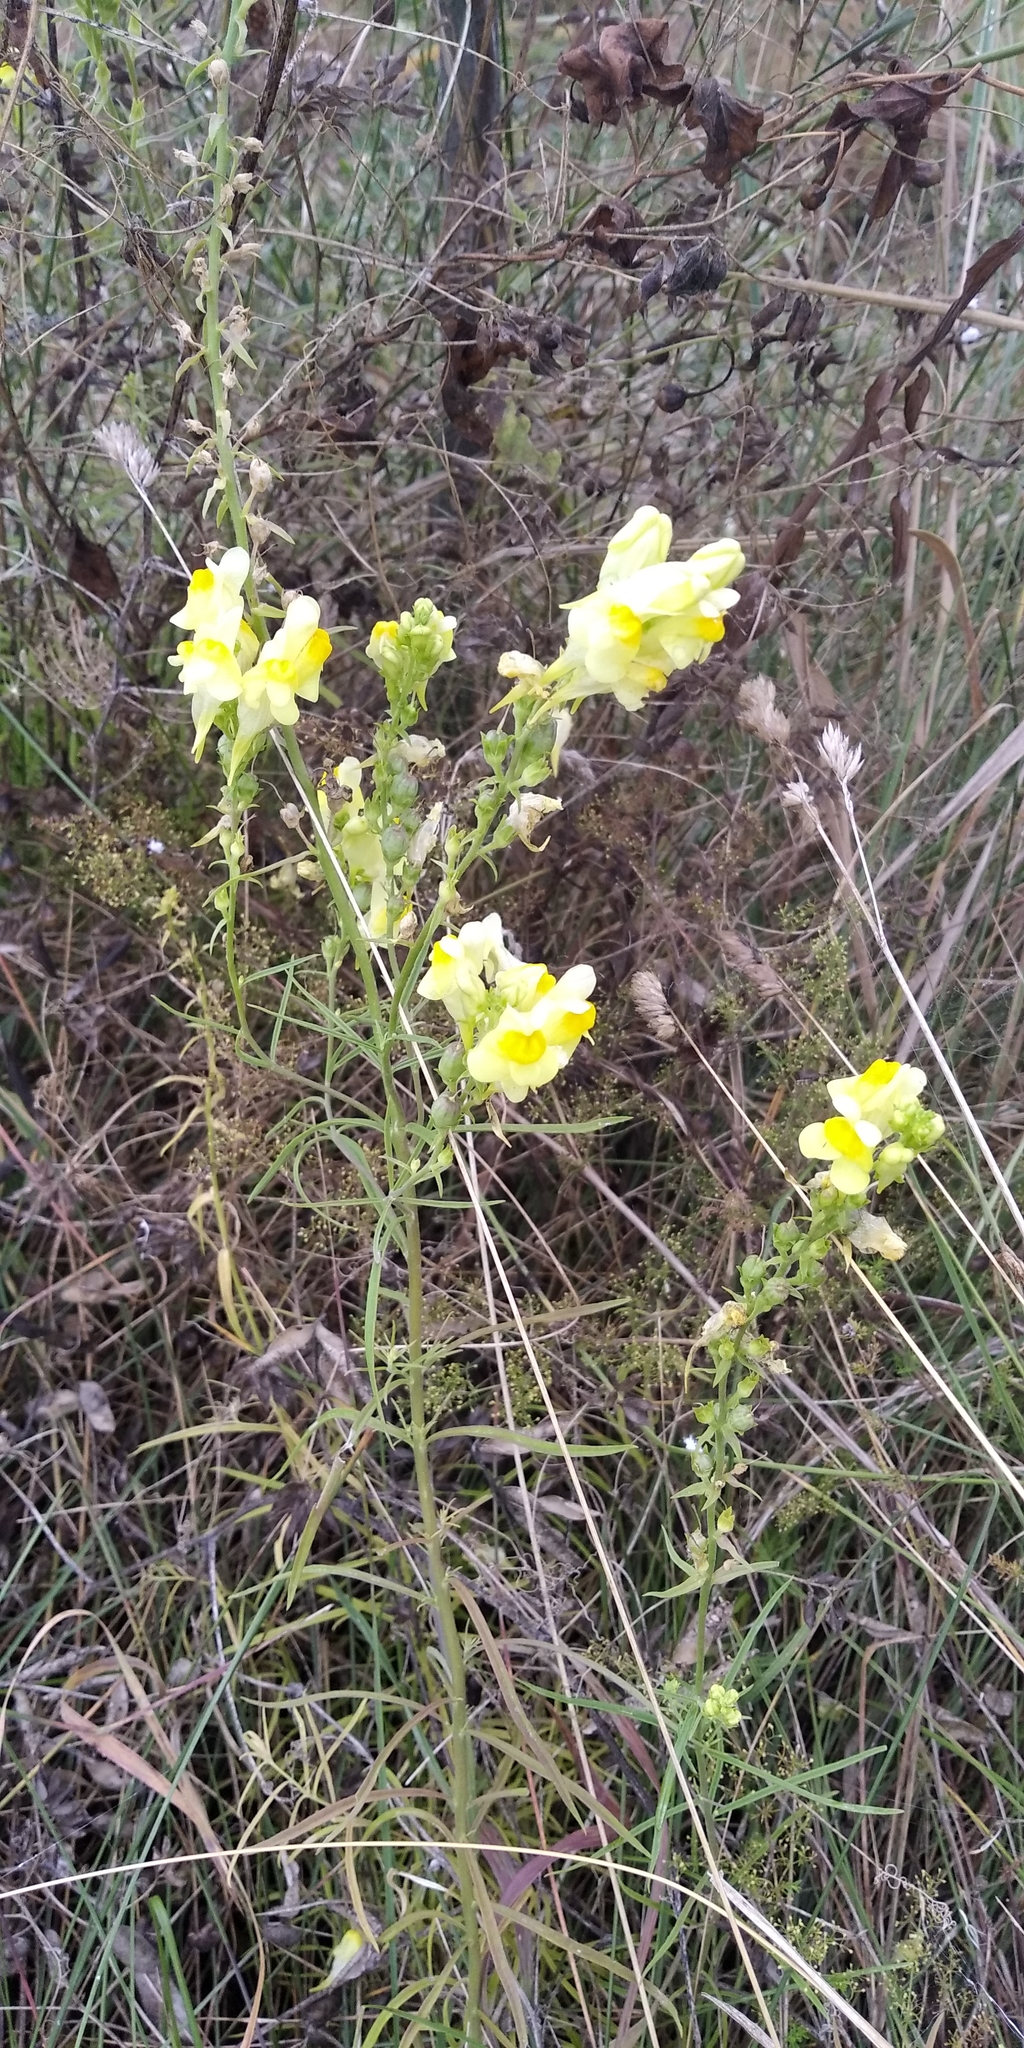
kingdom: Plantae
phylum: Tracheophyta
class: Magnoliopsida
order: Lamiales
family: Plantaginaceae
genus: Linaria
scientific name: Linaria vulgaris
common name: Butter and eggs
